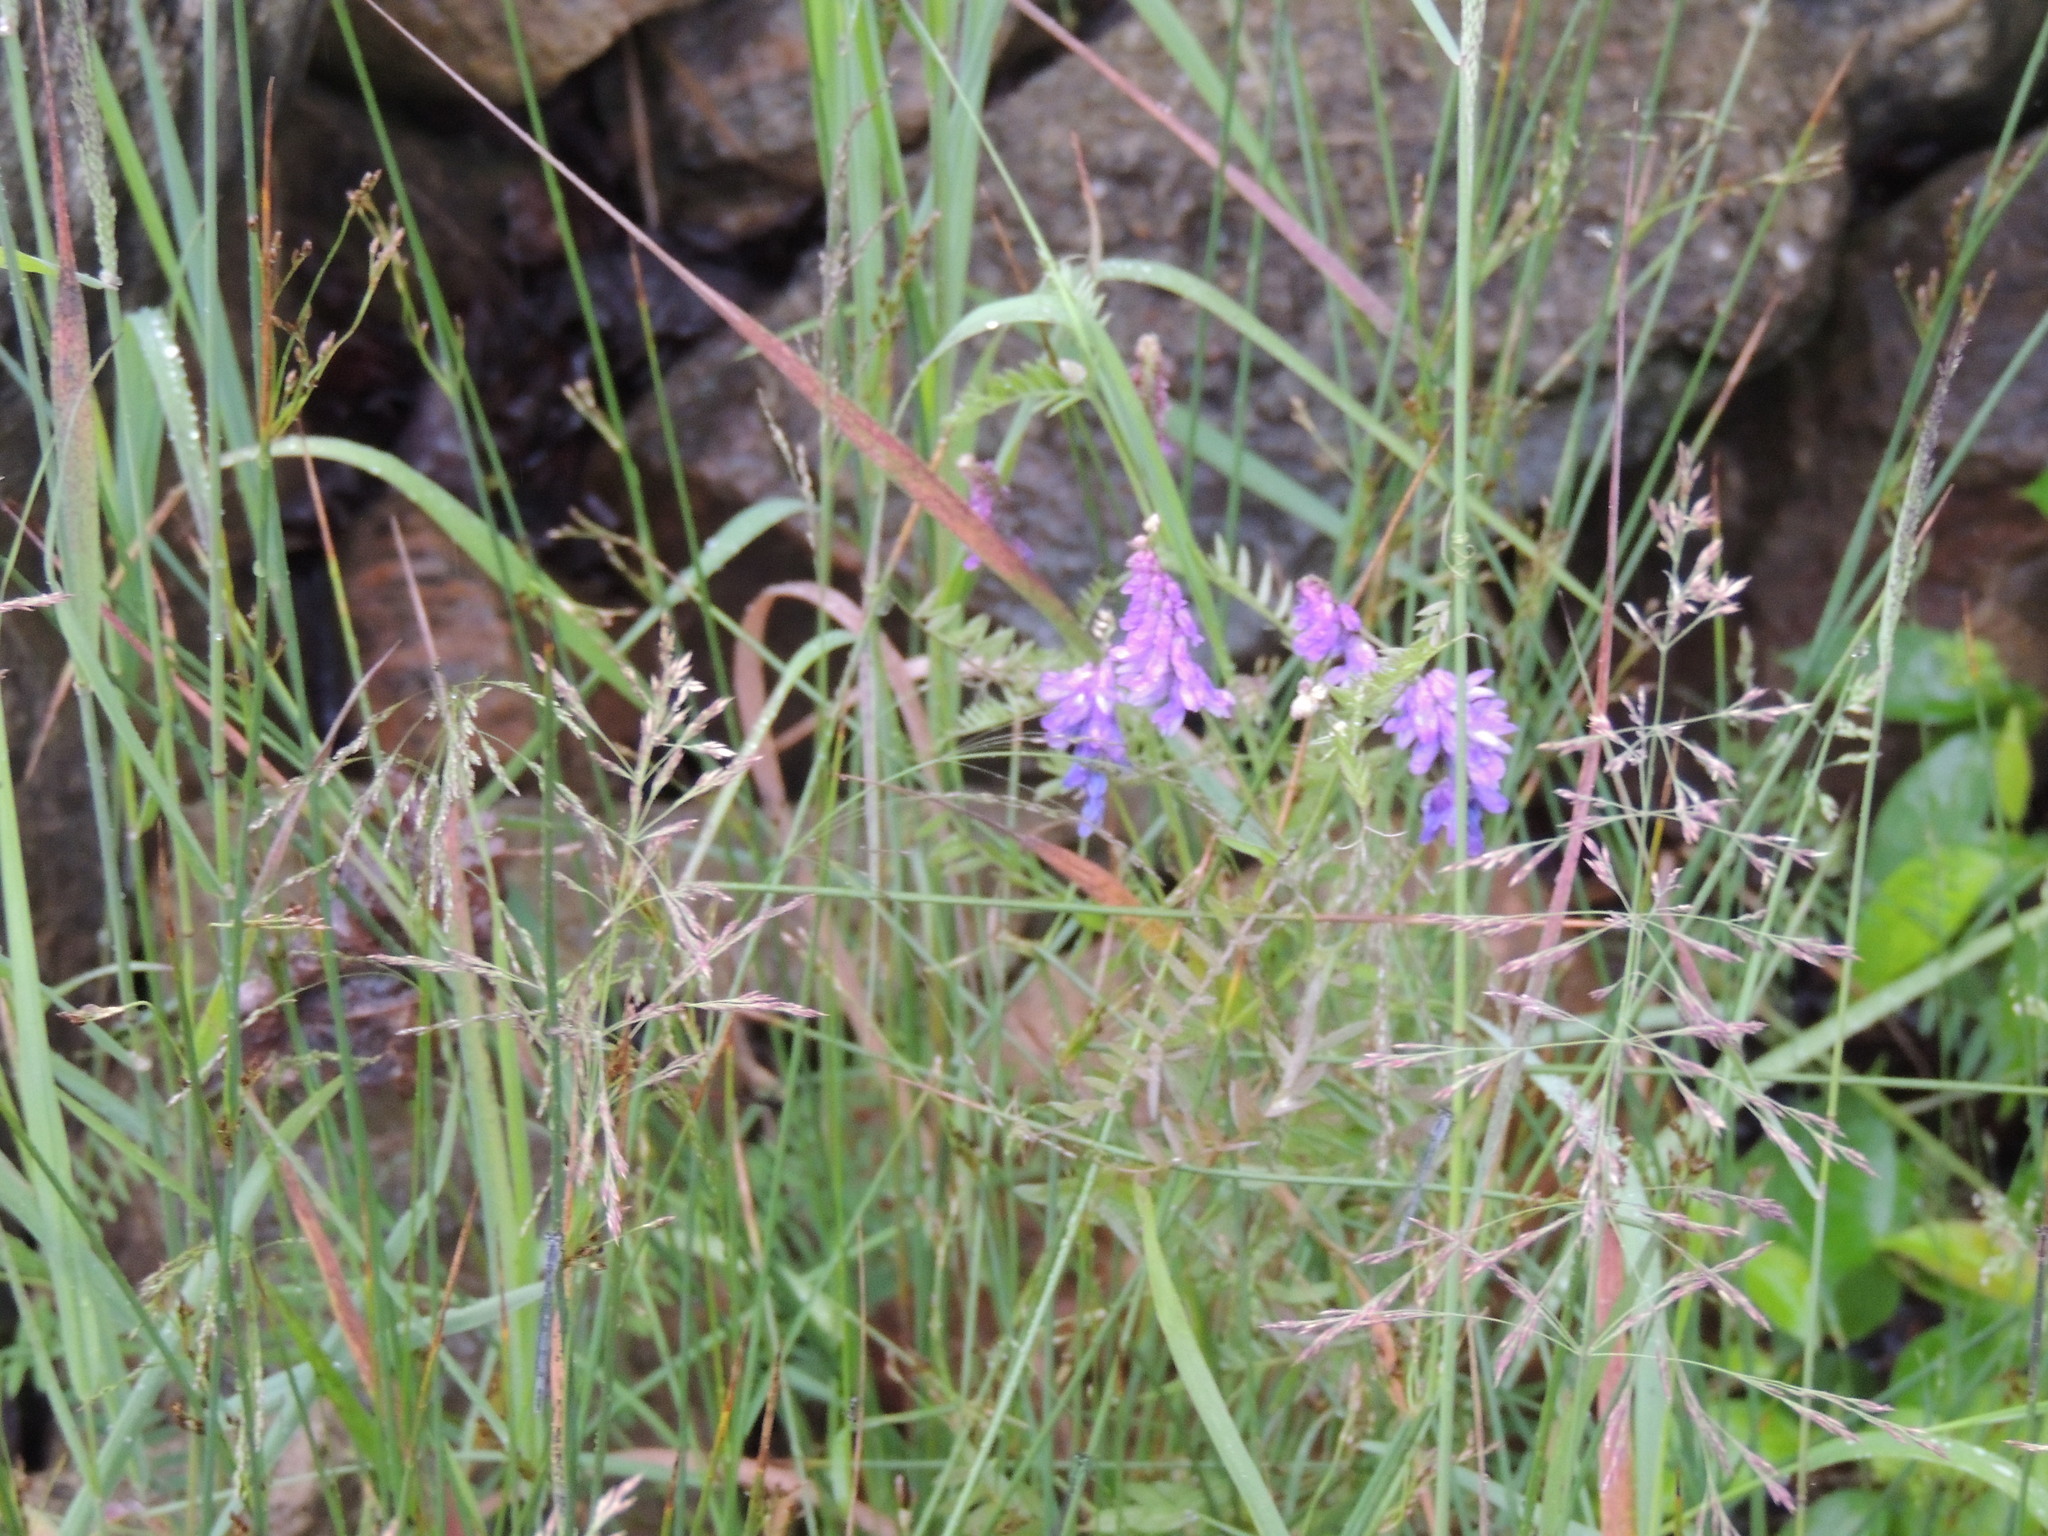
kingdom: Plantae
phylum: Tracheophyta
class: Magnoliopsida
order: Fabales
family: Fabaceae
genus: Vicia
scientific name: Vicia cracca
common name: Bird vetch
